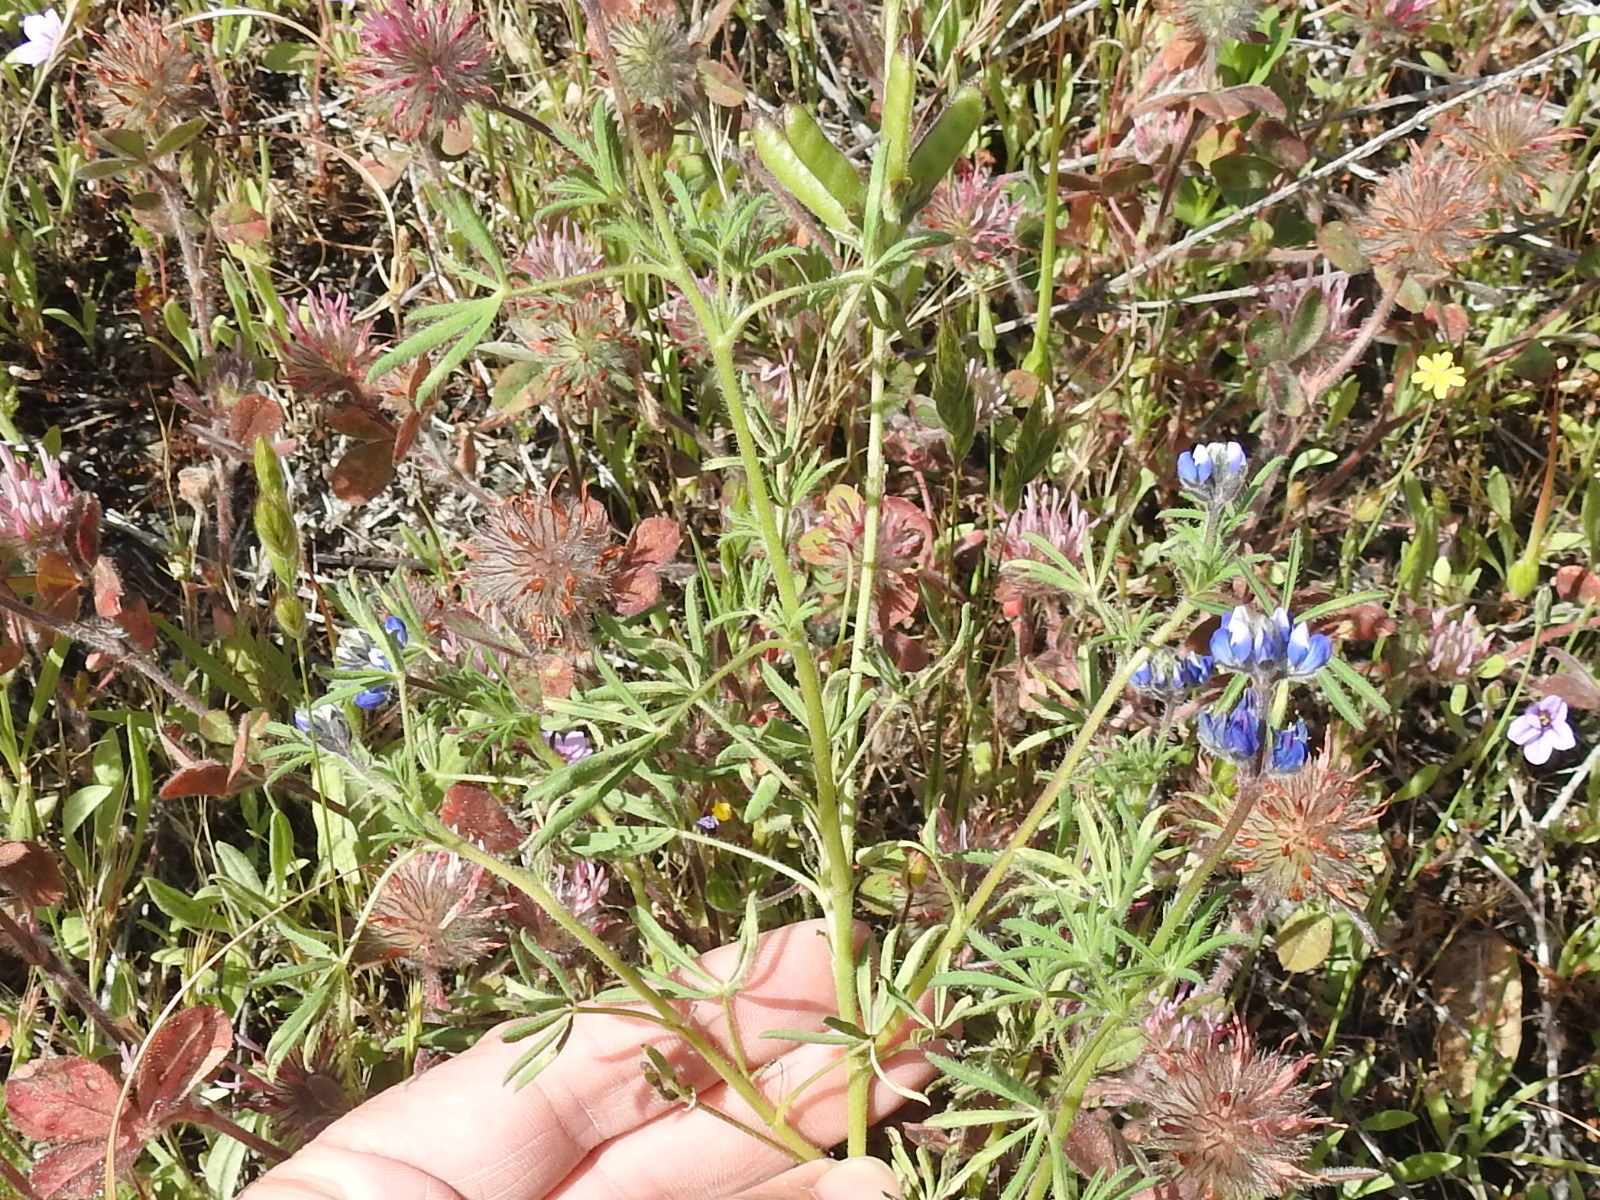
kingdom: Plantae
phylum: Tracheophyta
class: Magnoliopsida
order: Fabales
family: Fabaceae
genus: Lupinus
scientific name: Lupinus bicolor
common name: Miniature lupine
